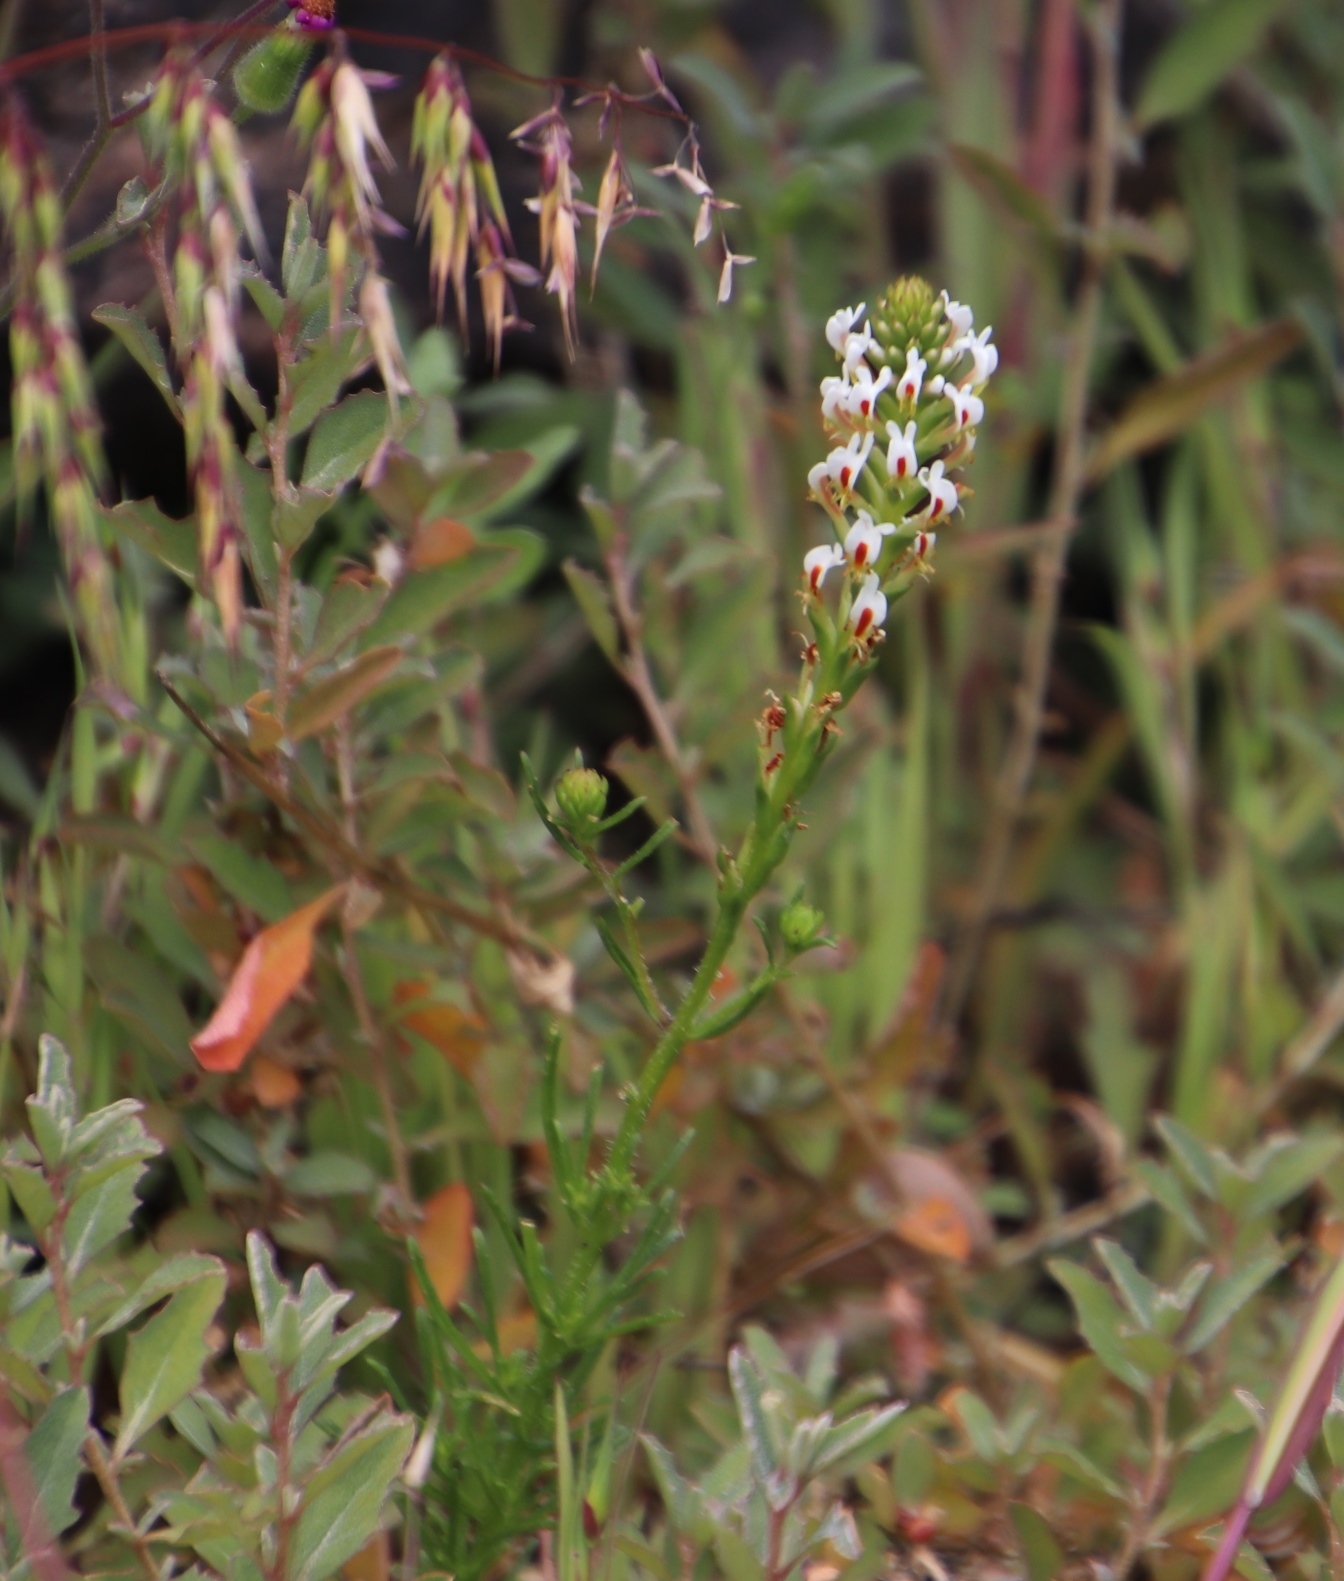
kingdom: Plantae
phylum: Tracheophyta
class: Magnoliopsida
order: Lamiales
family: Scrophulariaceae
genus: Hebenstretia
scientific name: Hebenstretia repens
